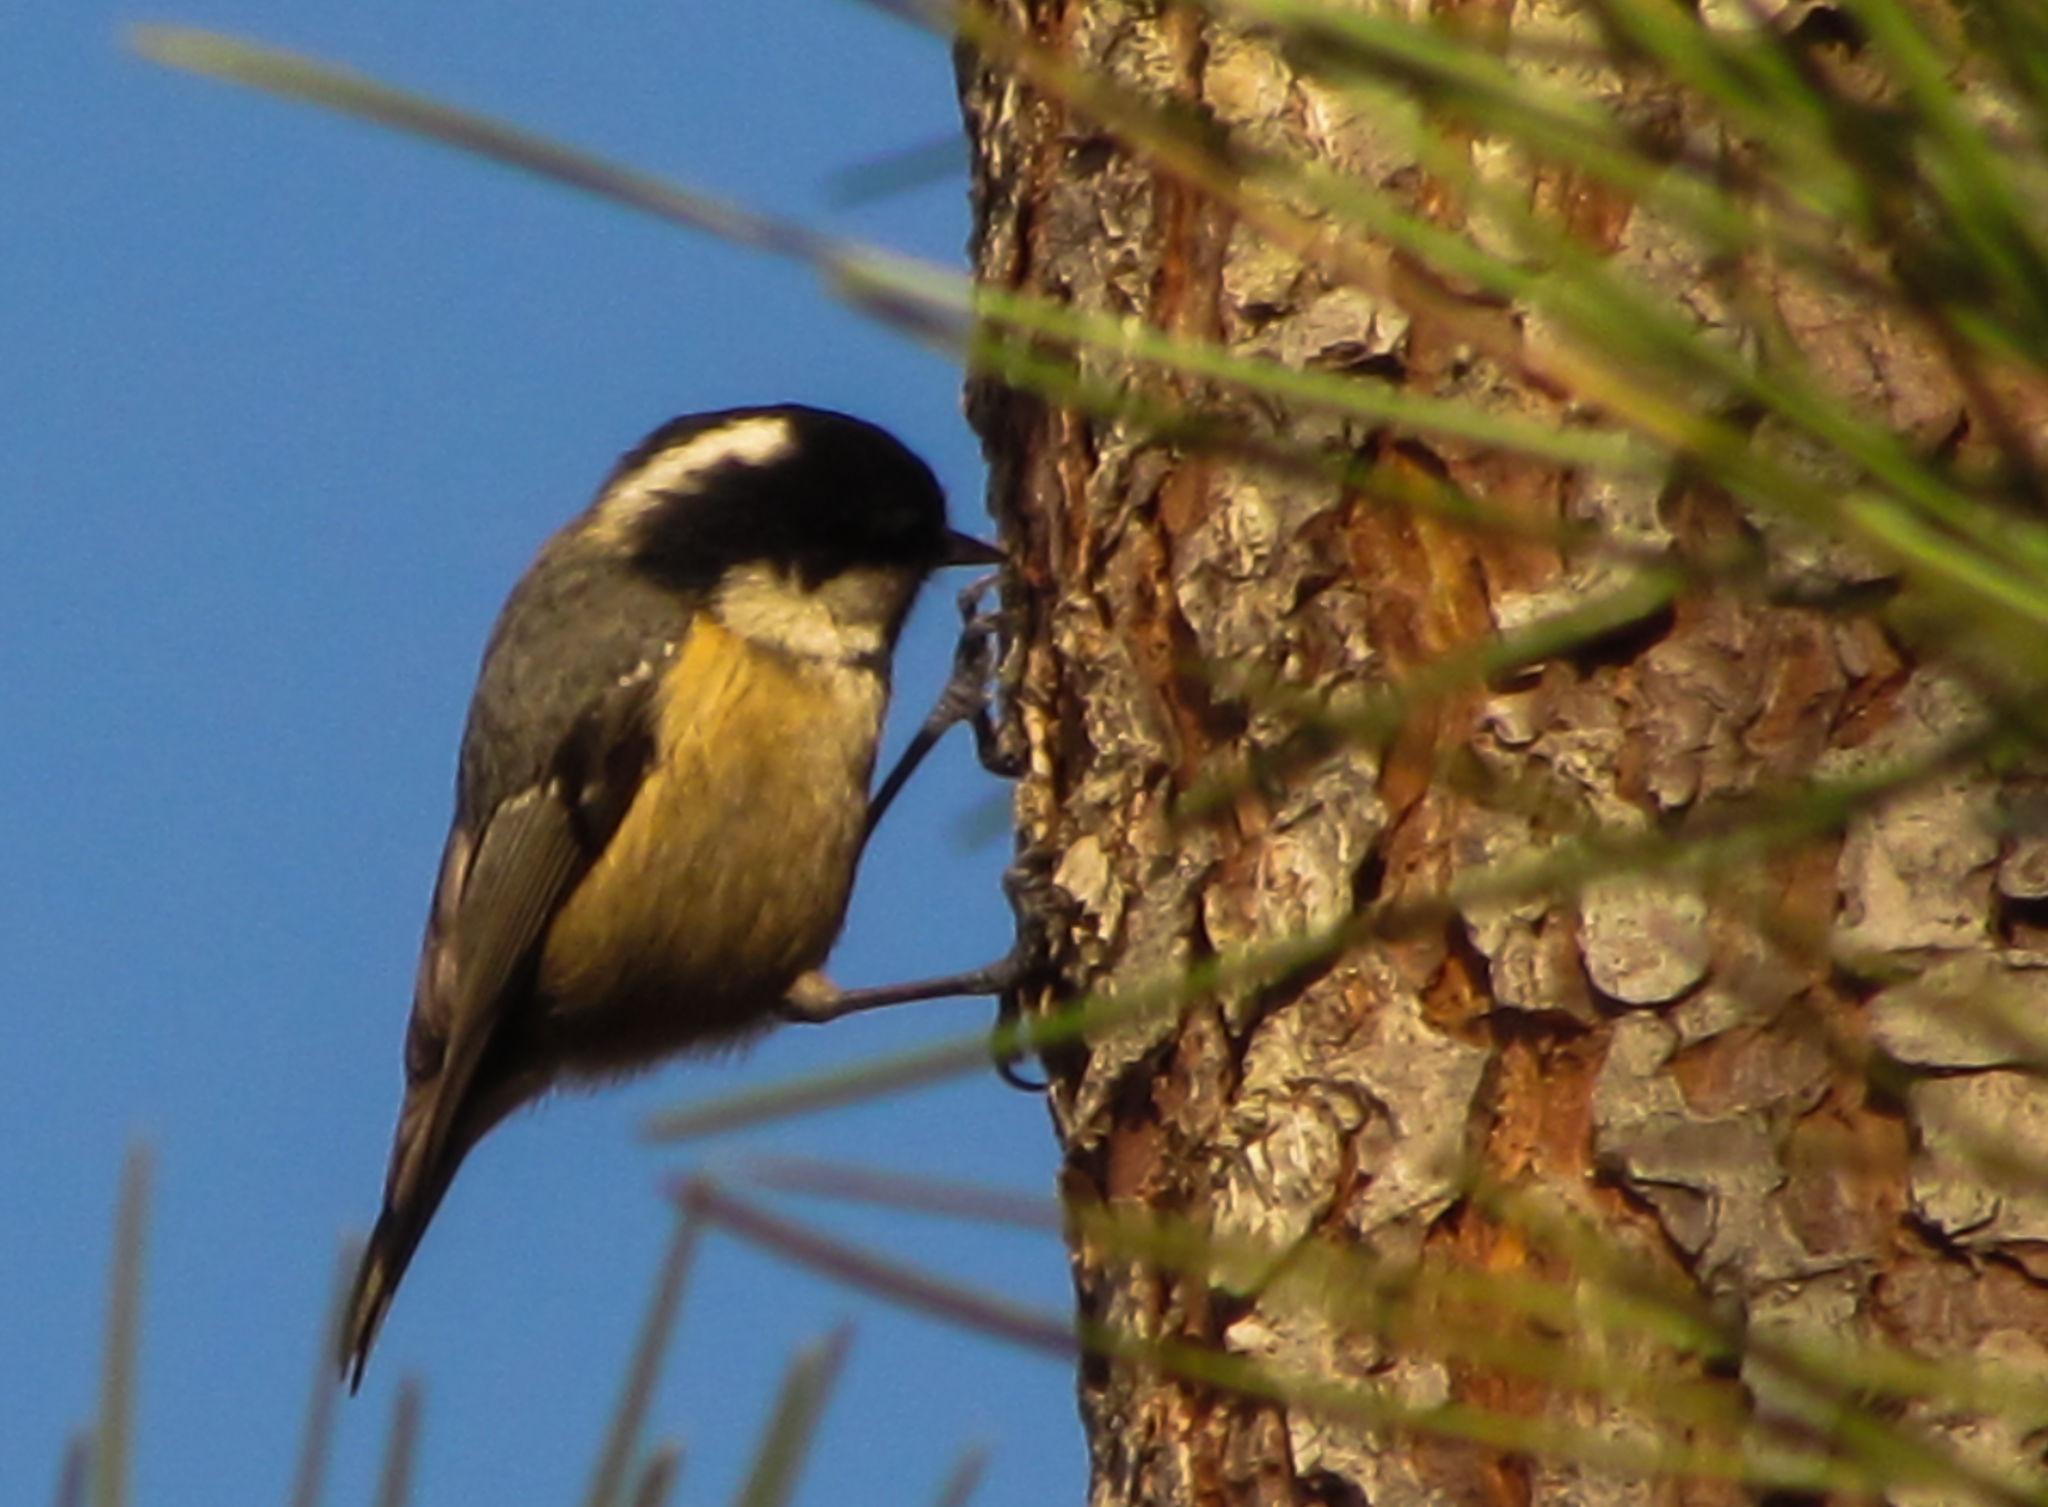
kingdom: Animalia
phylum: Chordata
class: Aves
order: Passeriformes
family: Paridae
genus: Periparus
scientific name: Periparus ater
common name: Coal tit
